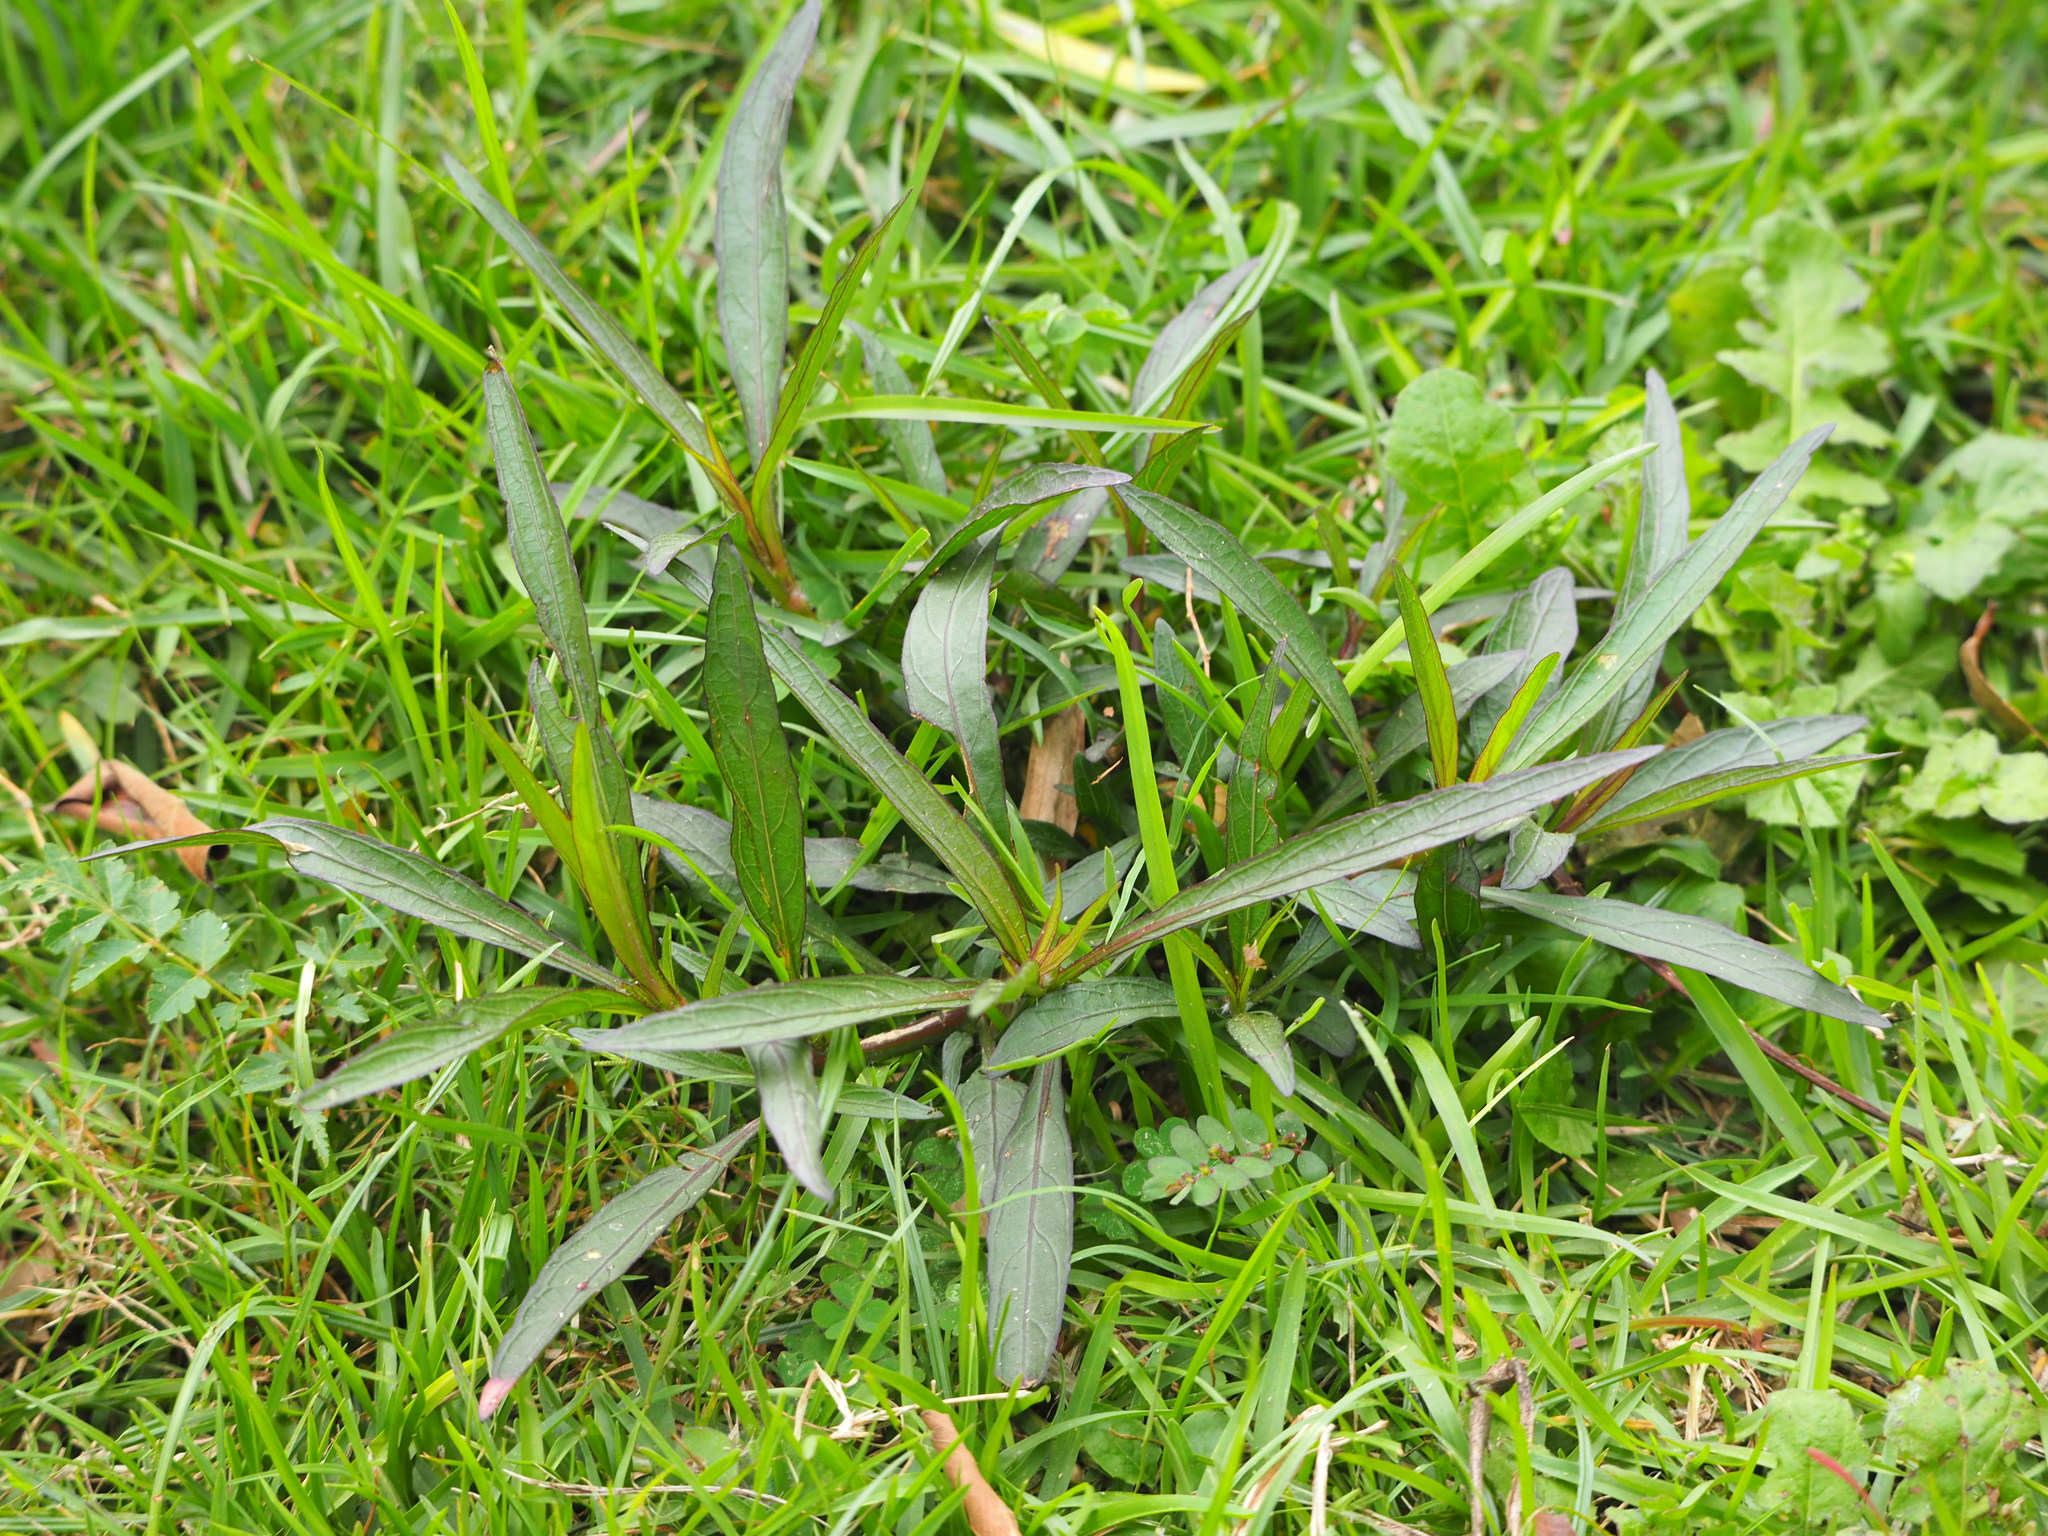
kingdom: Plantae
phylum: Tracheophyta
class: Magnoliopsida
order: Lamiales
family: Acanthaceae
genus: Ruellia
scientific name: Ruellia simplex
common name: Softseed wild petunia
